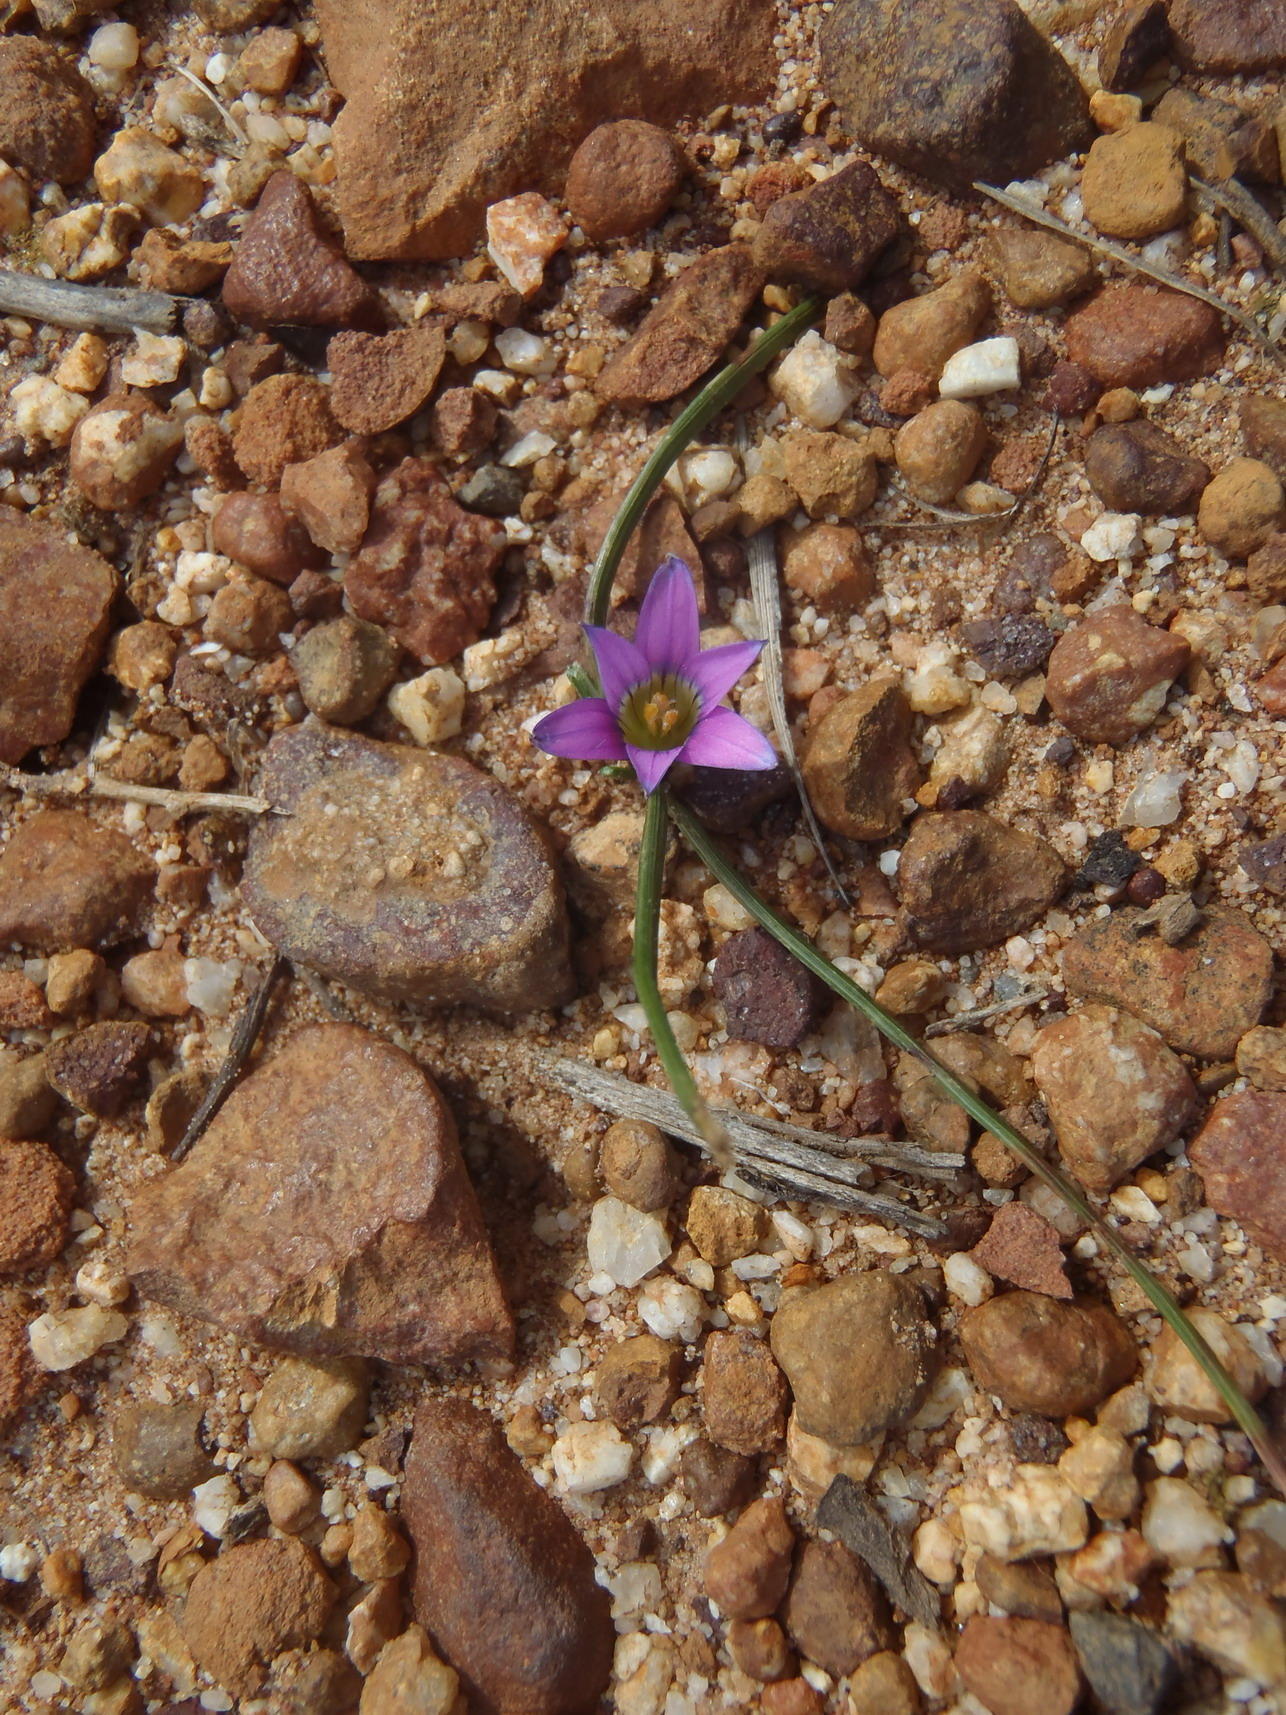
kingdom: Plantae
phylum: Tracheophyta
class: Liliopsida
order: Asparagales
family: Iridaceae
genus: Romulea
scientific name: Romulea rosea
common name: Oniongrass
